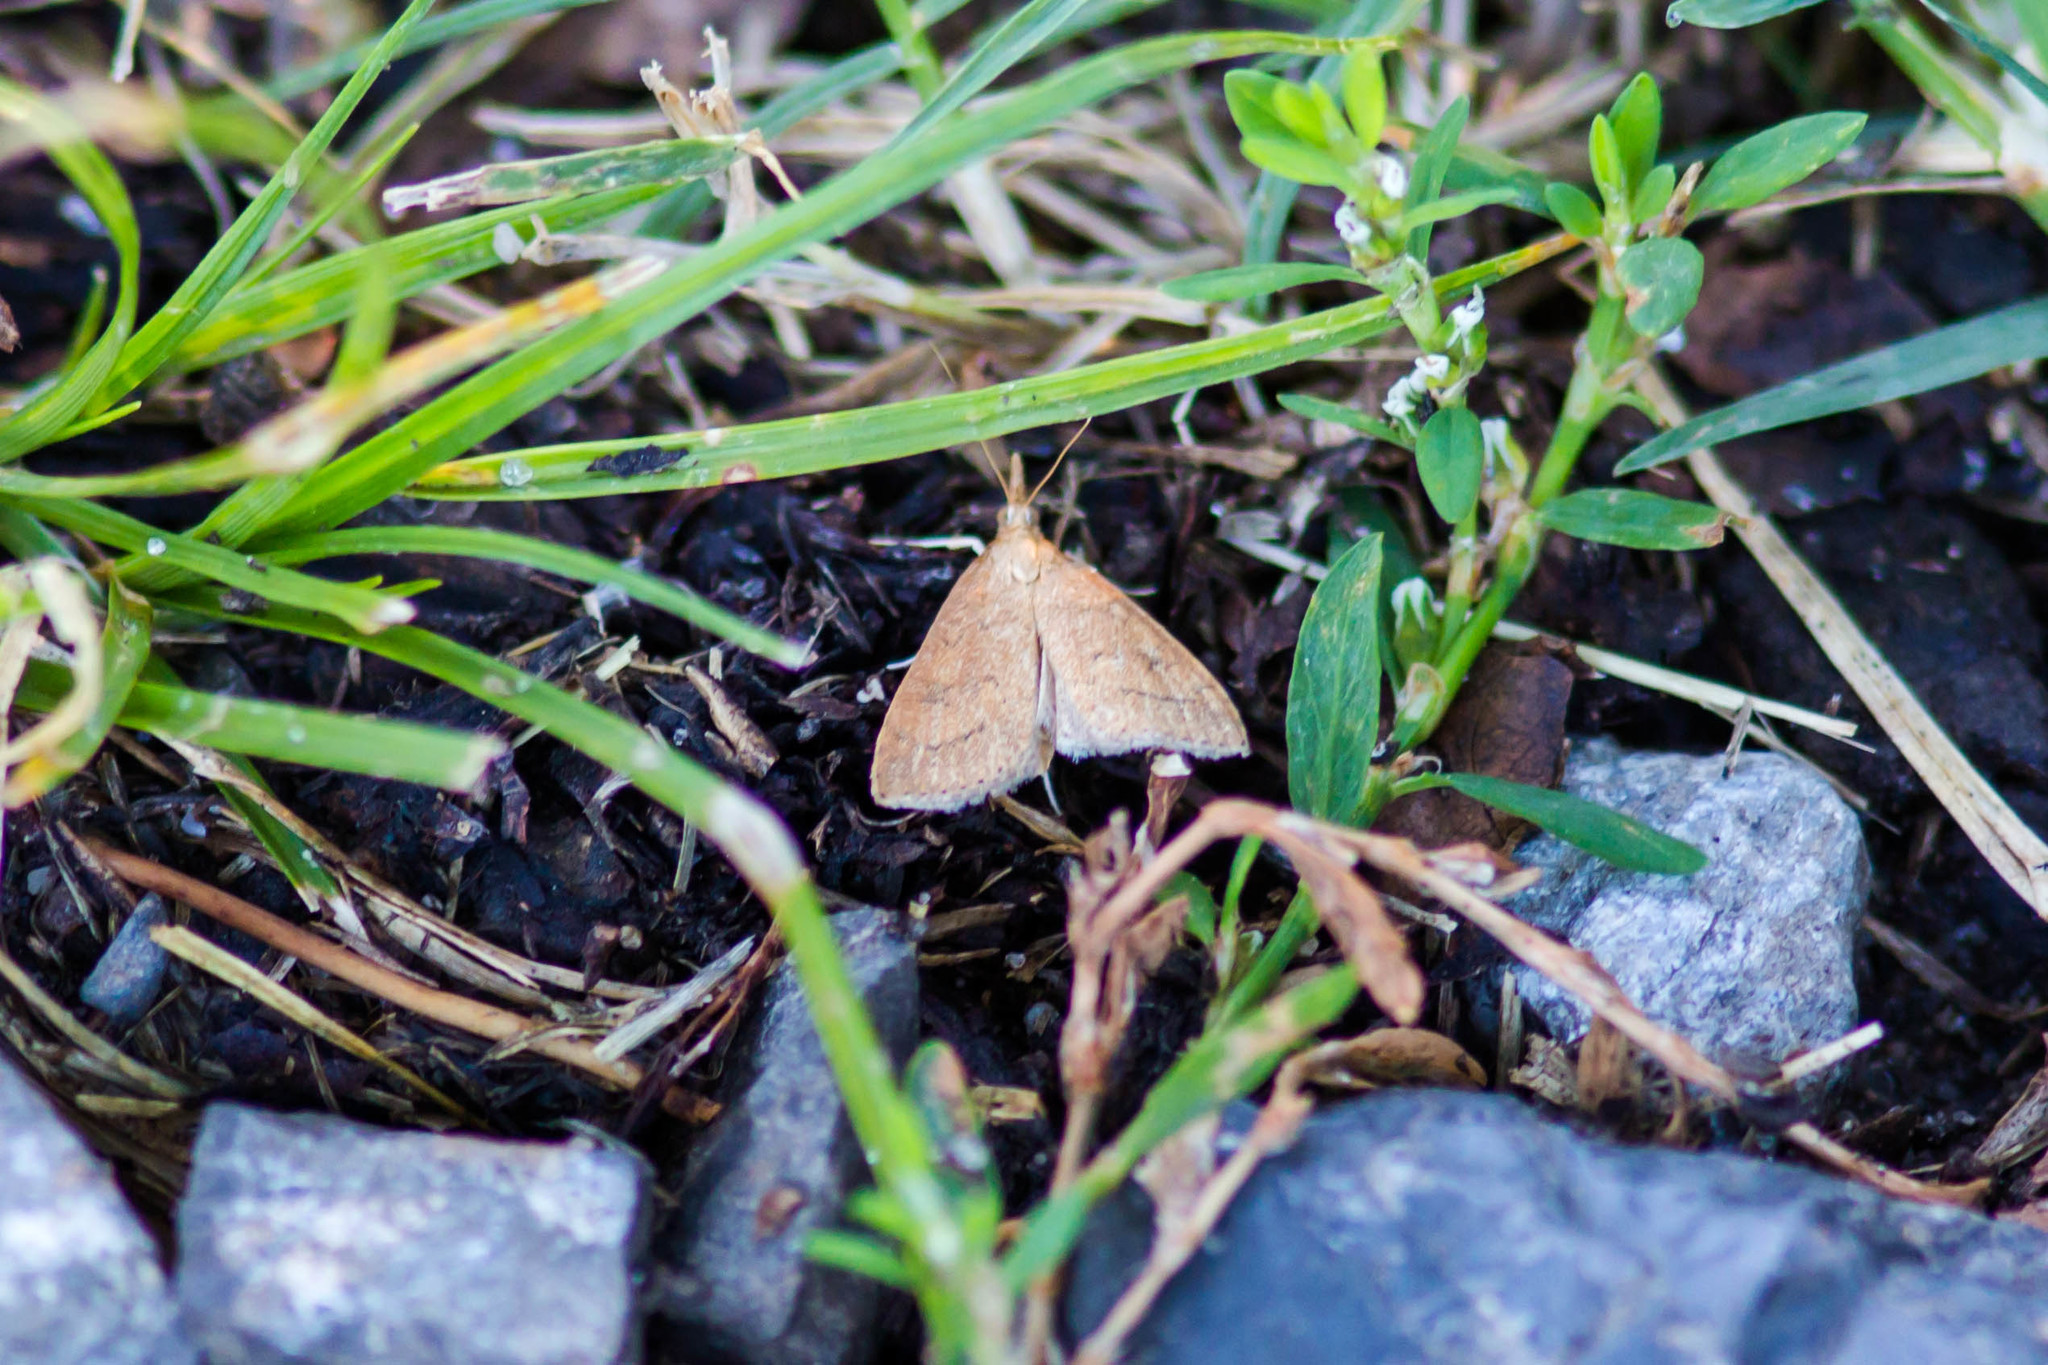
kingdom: Animalia
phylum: Arthropoda
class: Insecta
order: Lepidoptera
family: Crambidae
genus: Udea
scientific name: Udea rubigalis
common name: Celery leaftier moth
